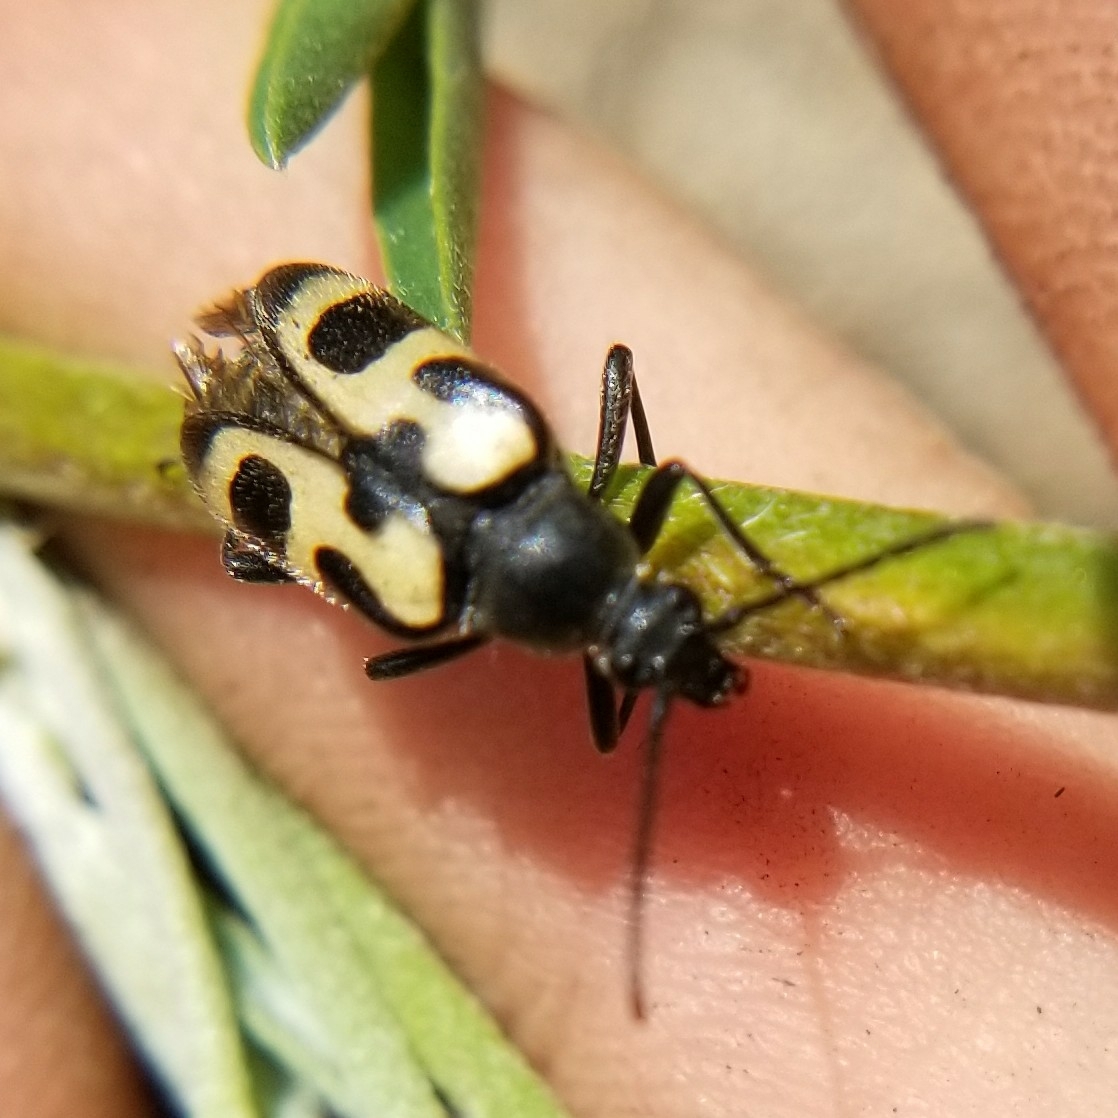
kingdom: Animalia
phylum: Arthropoda
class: Insecta
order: Coleoptera
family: Cerambycidae
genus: Judolia
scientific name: Judolia instabilis
